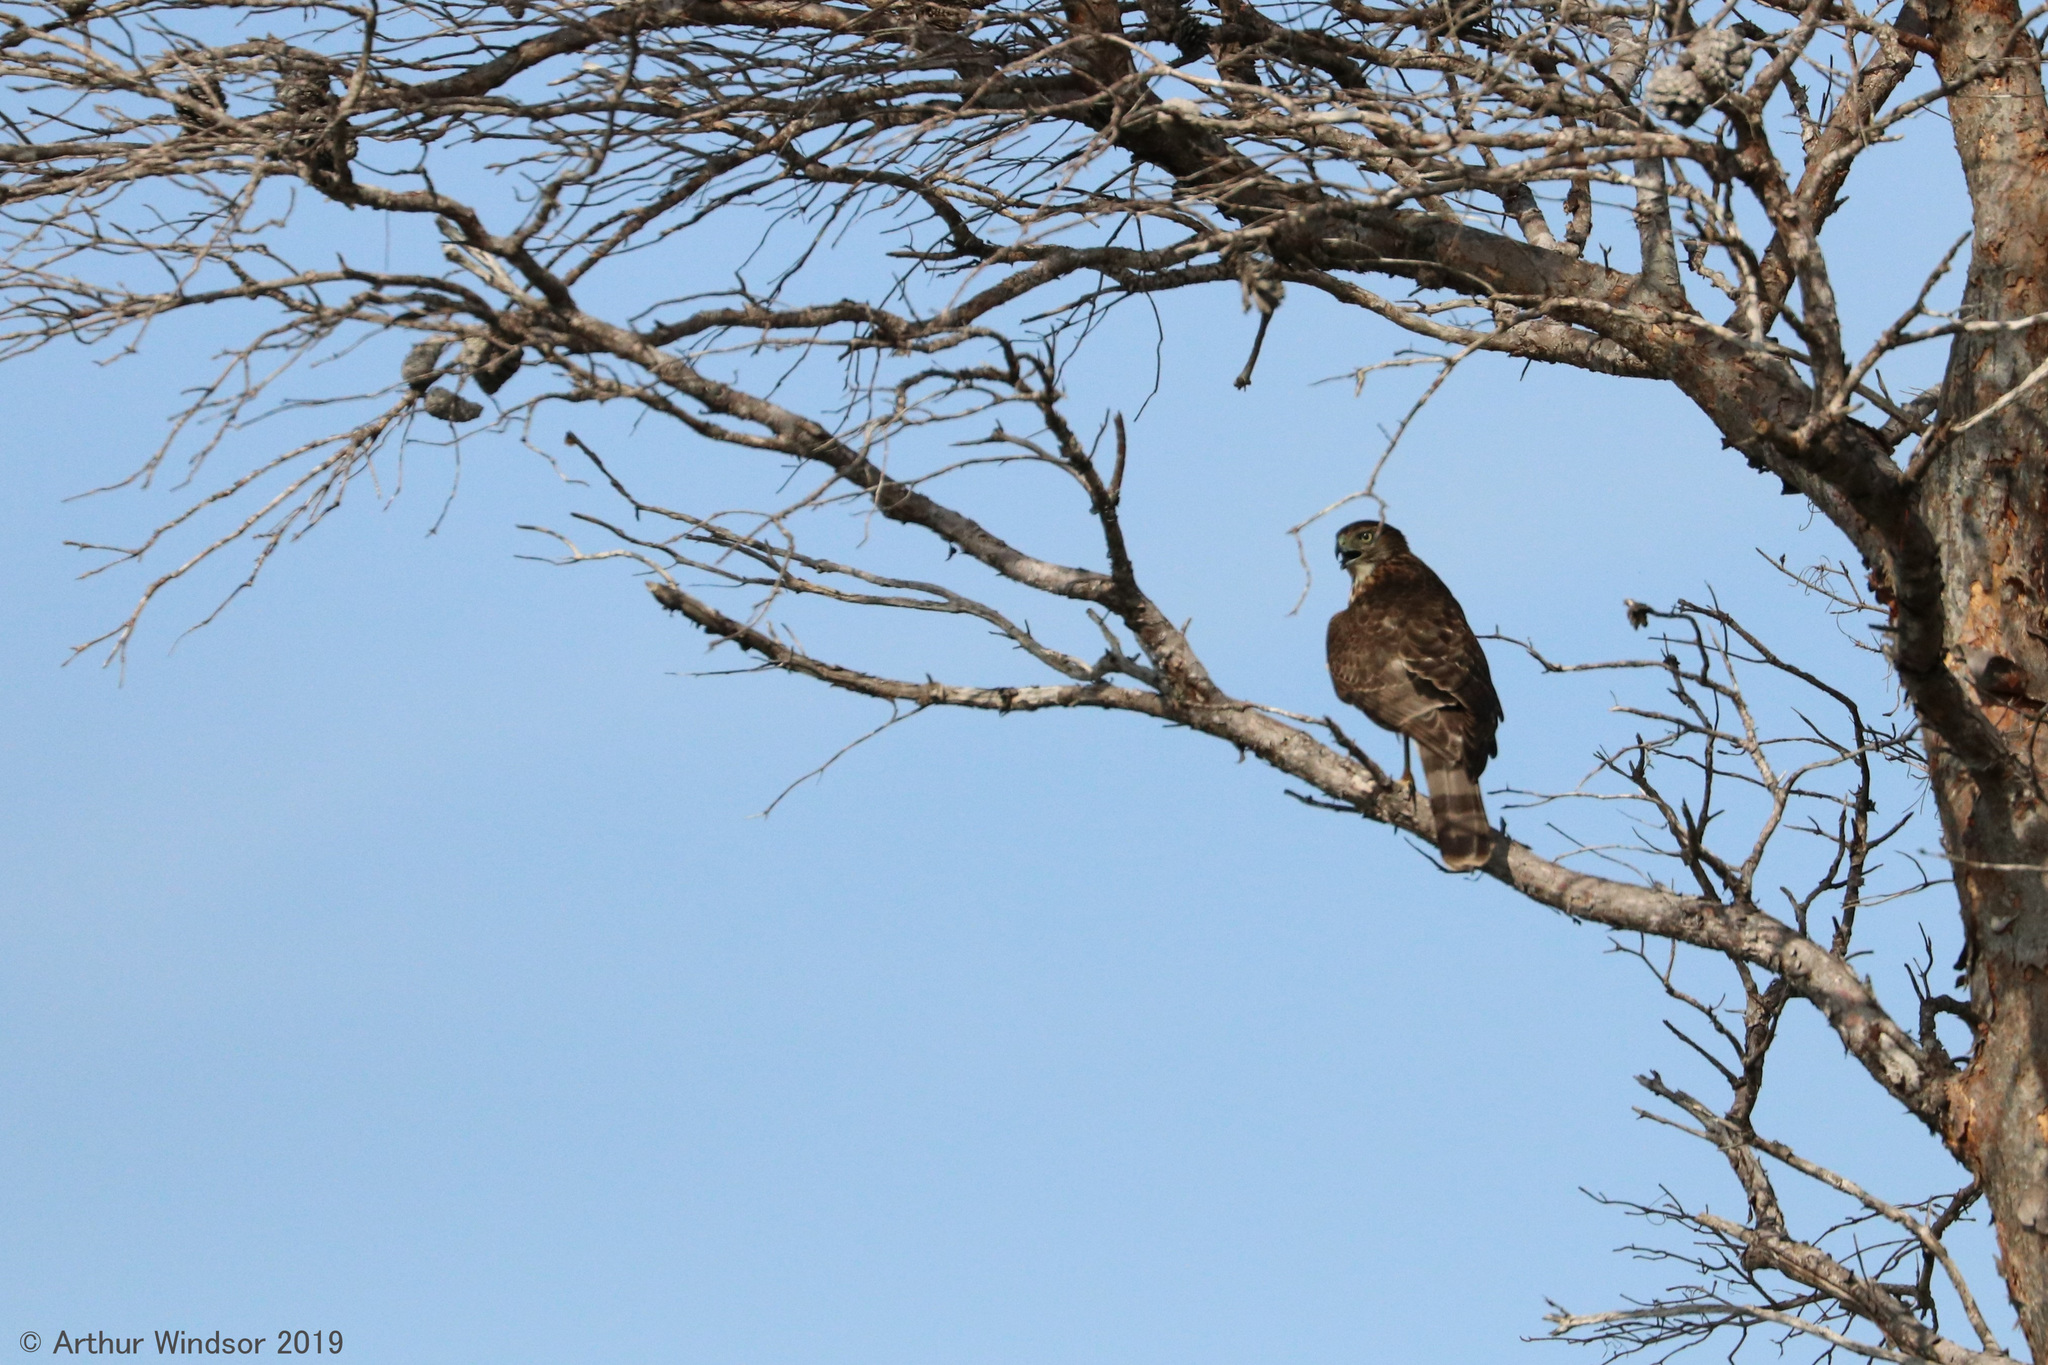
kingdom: Animalia
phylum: Chordata
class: Aves
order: Accipitriformes
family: Accipitridae
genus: Accipiter
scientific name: Accipiter cooperii
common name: Cooper's hawk
